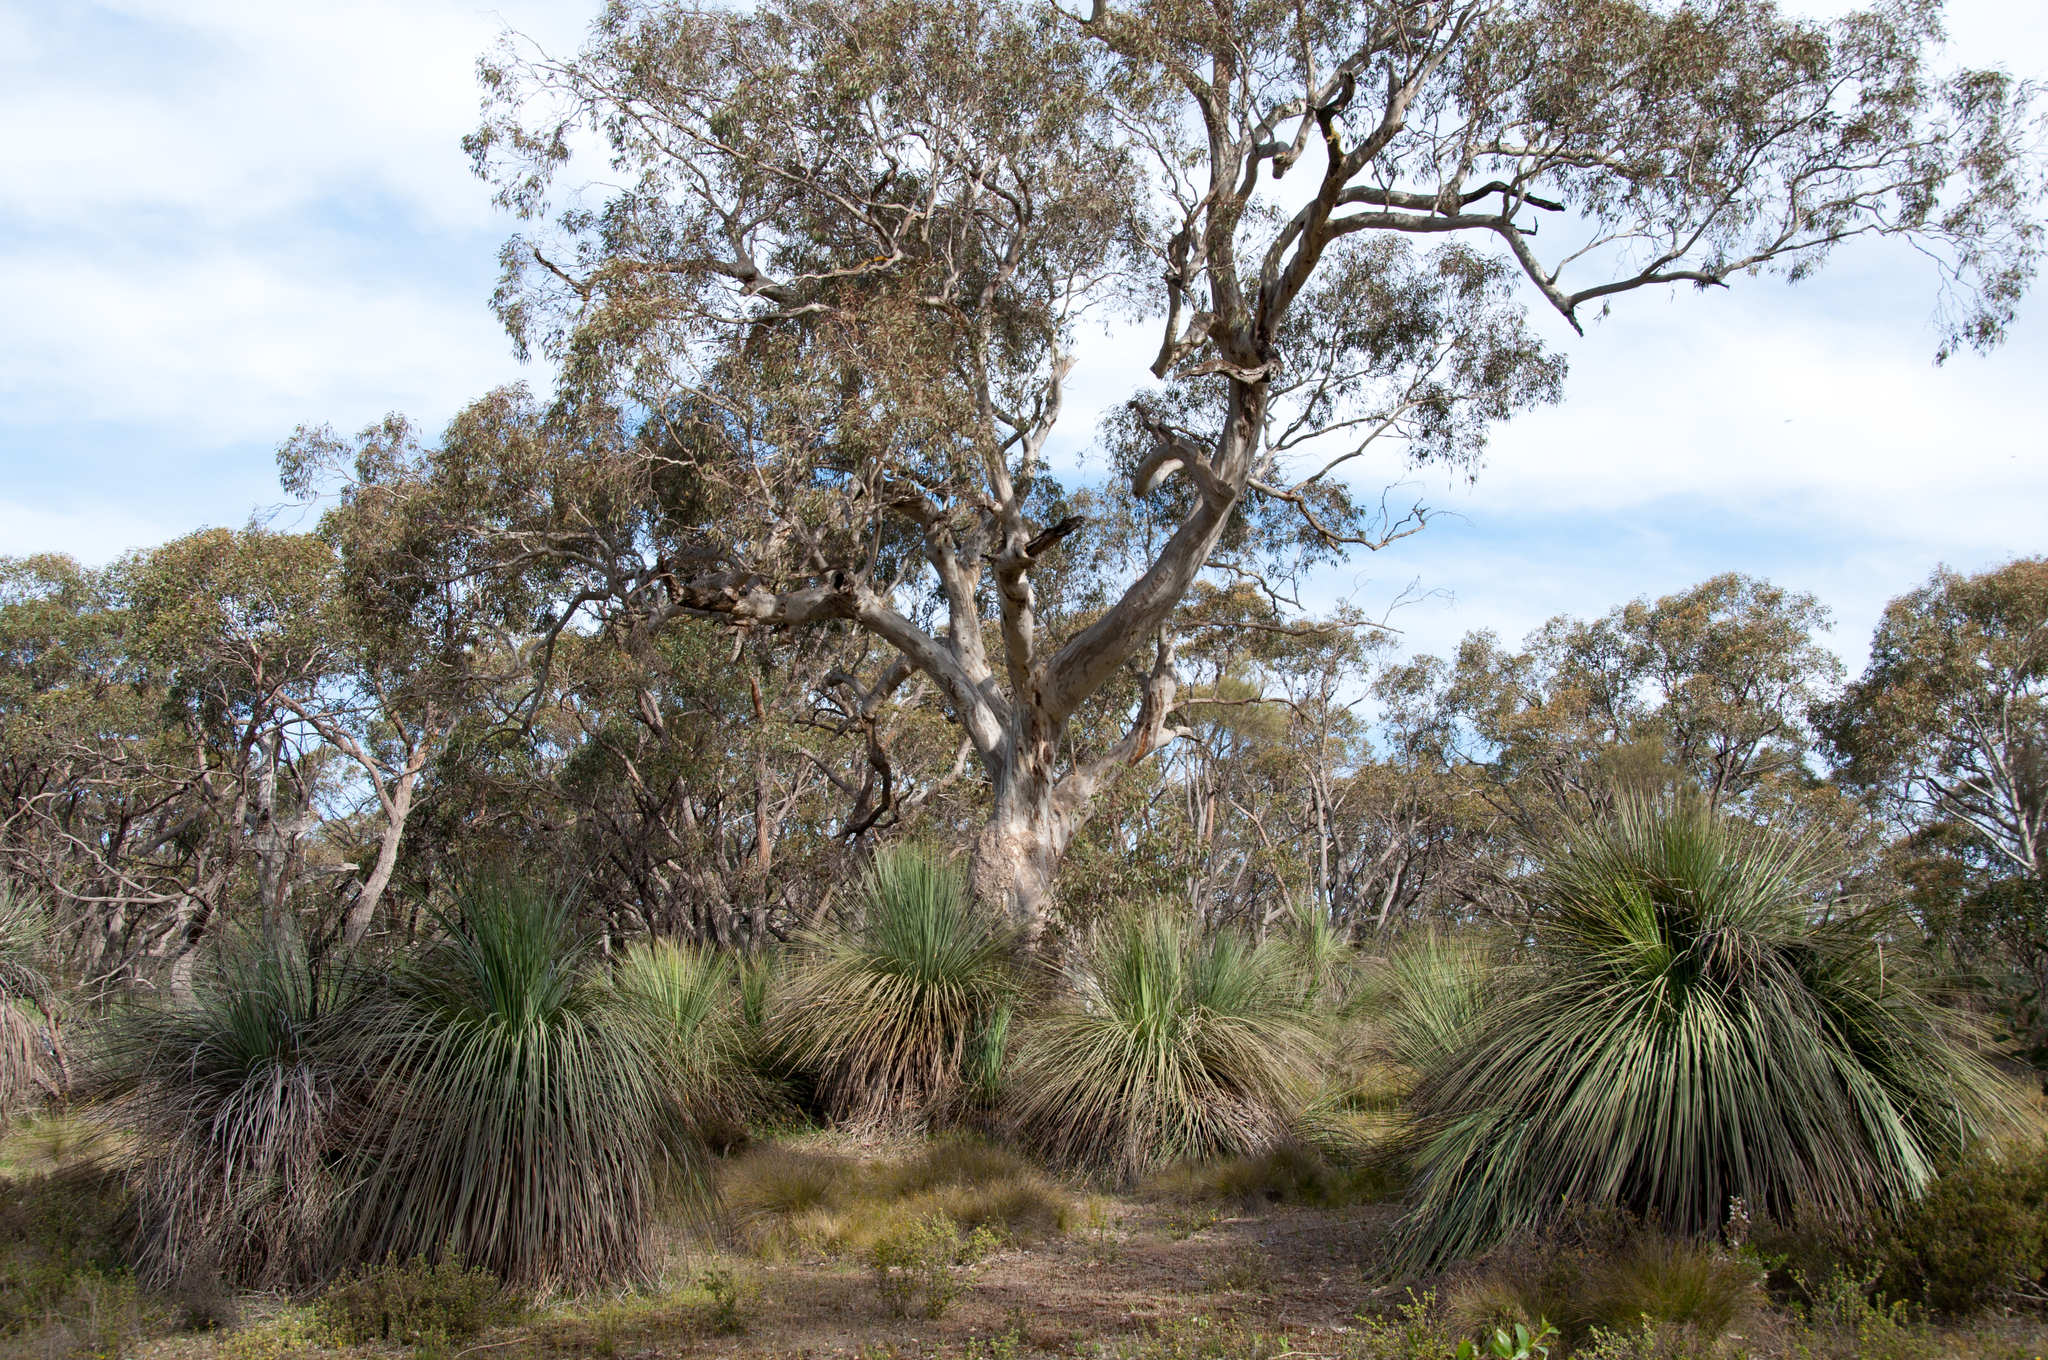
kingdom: Plantae
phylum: Tracheophyta
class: Liliopsida
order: Asparagales
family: Asphodelaceae
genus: Xanthorrhoea
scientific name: Xanthorrhoea semiplana
